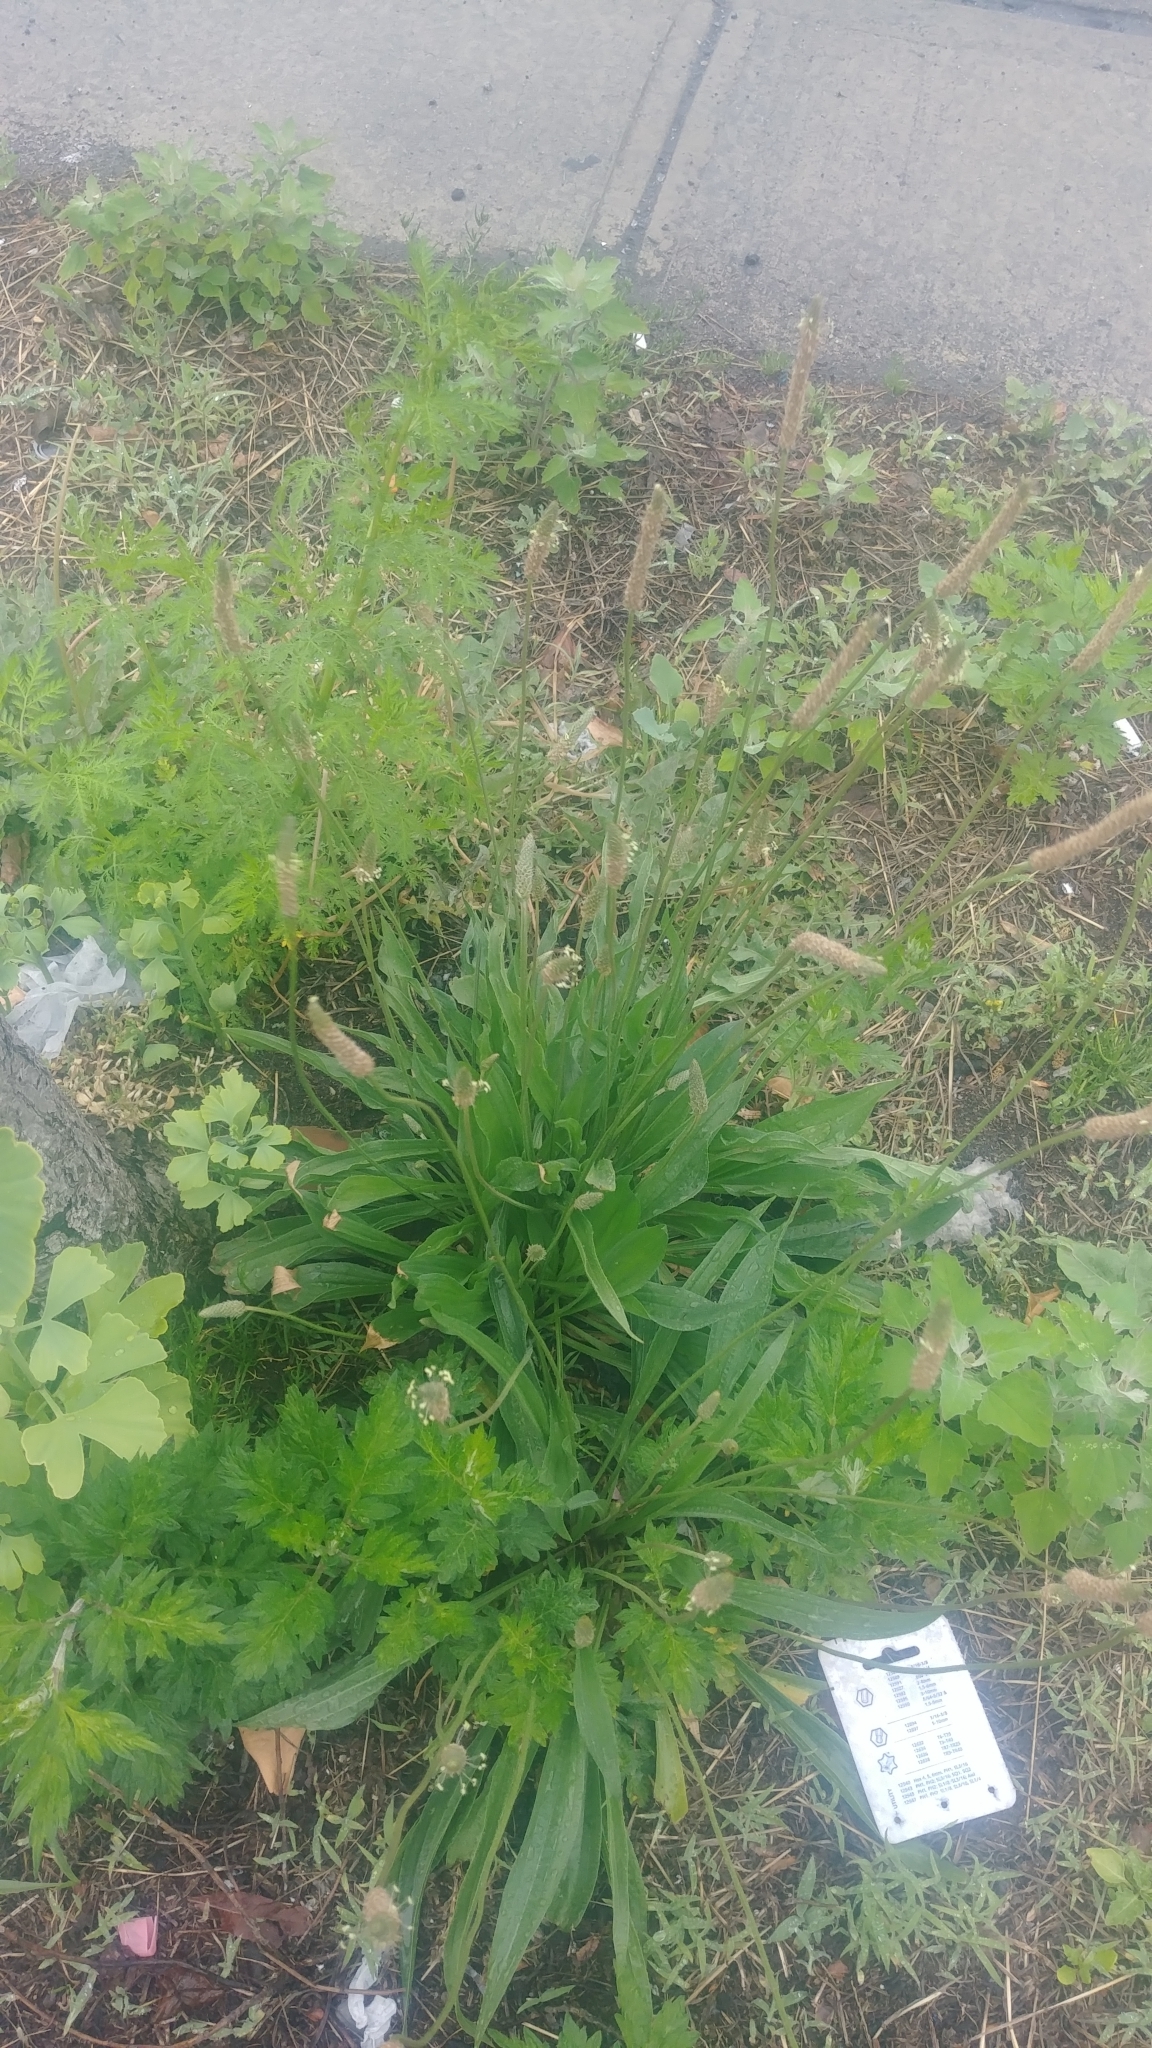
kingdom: Plantae
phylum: Tracheophyta
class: Magnoliopsida
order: Lamiales
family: Plantaginaceae
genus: Plantago
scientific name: Plantago lanceolata
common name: Ribwort plantain
